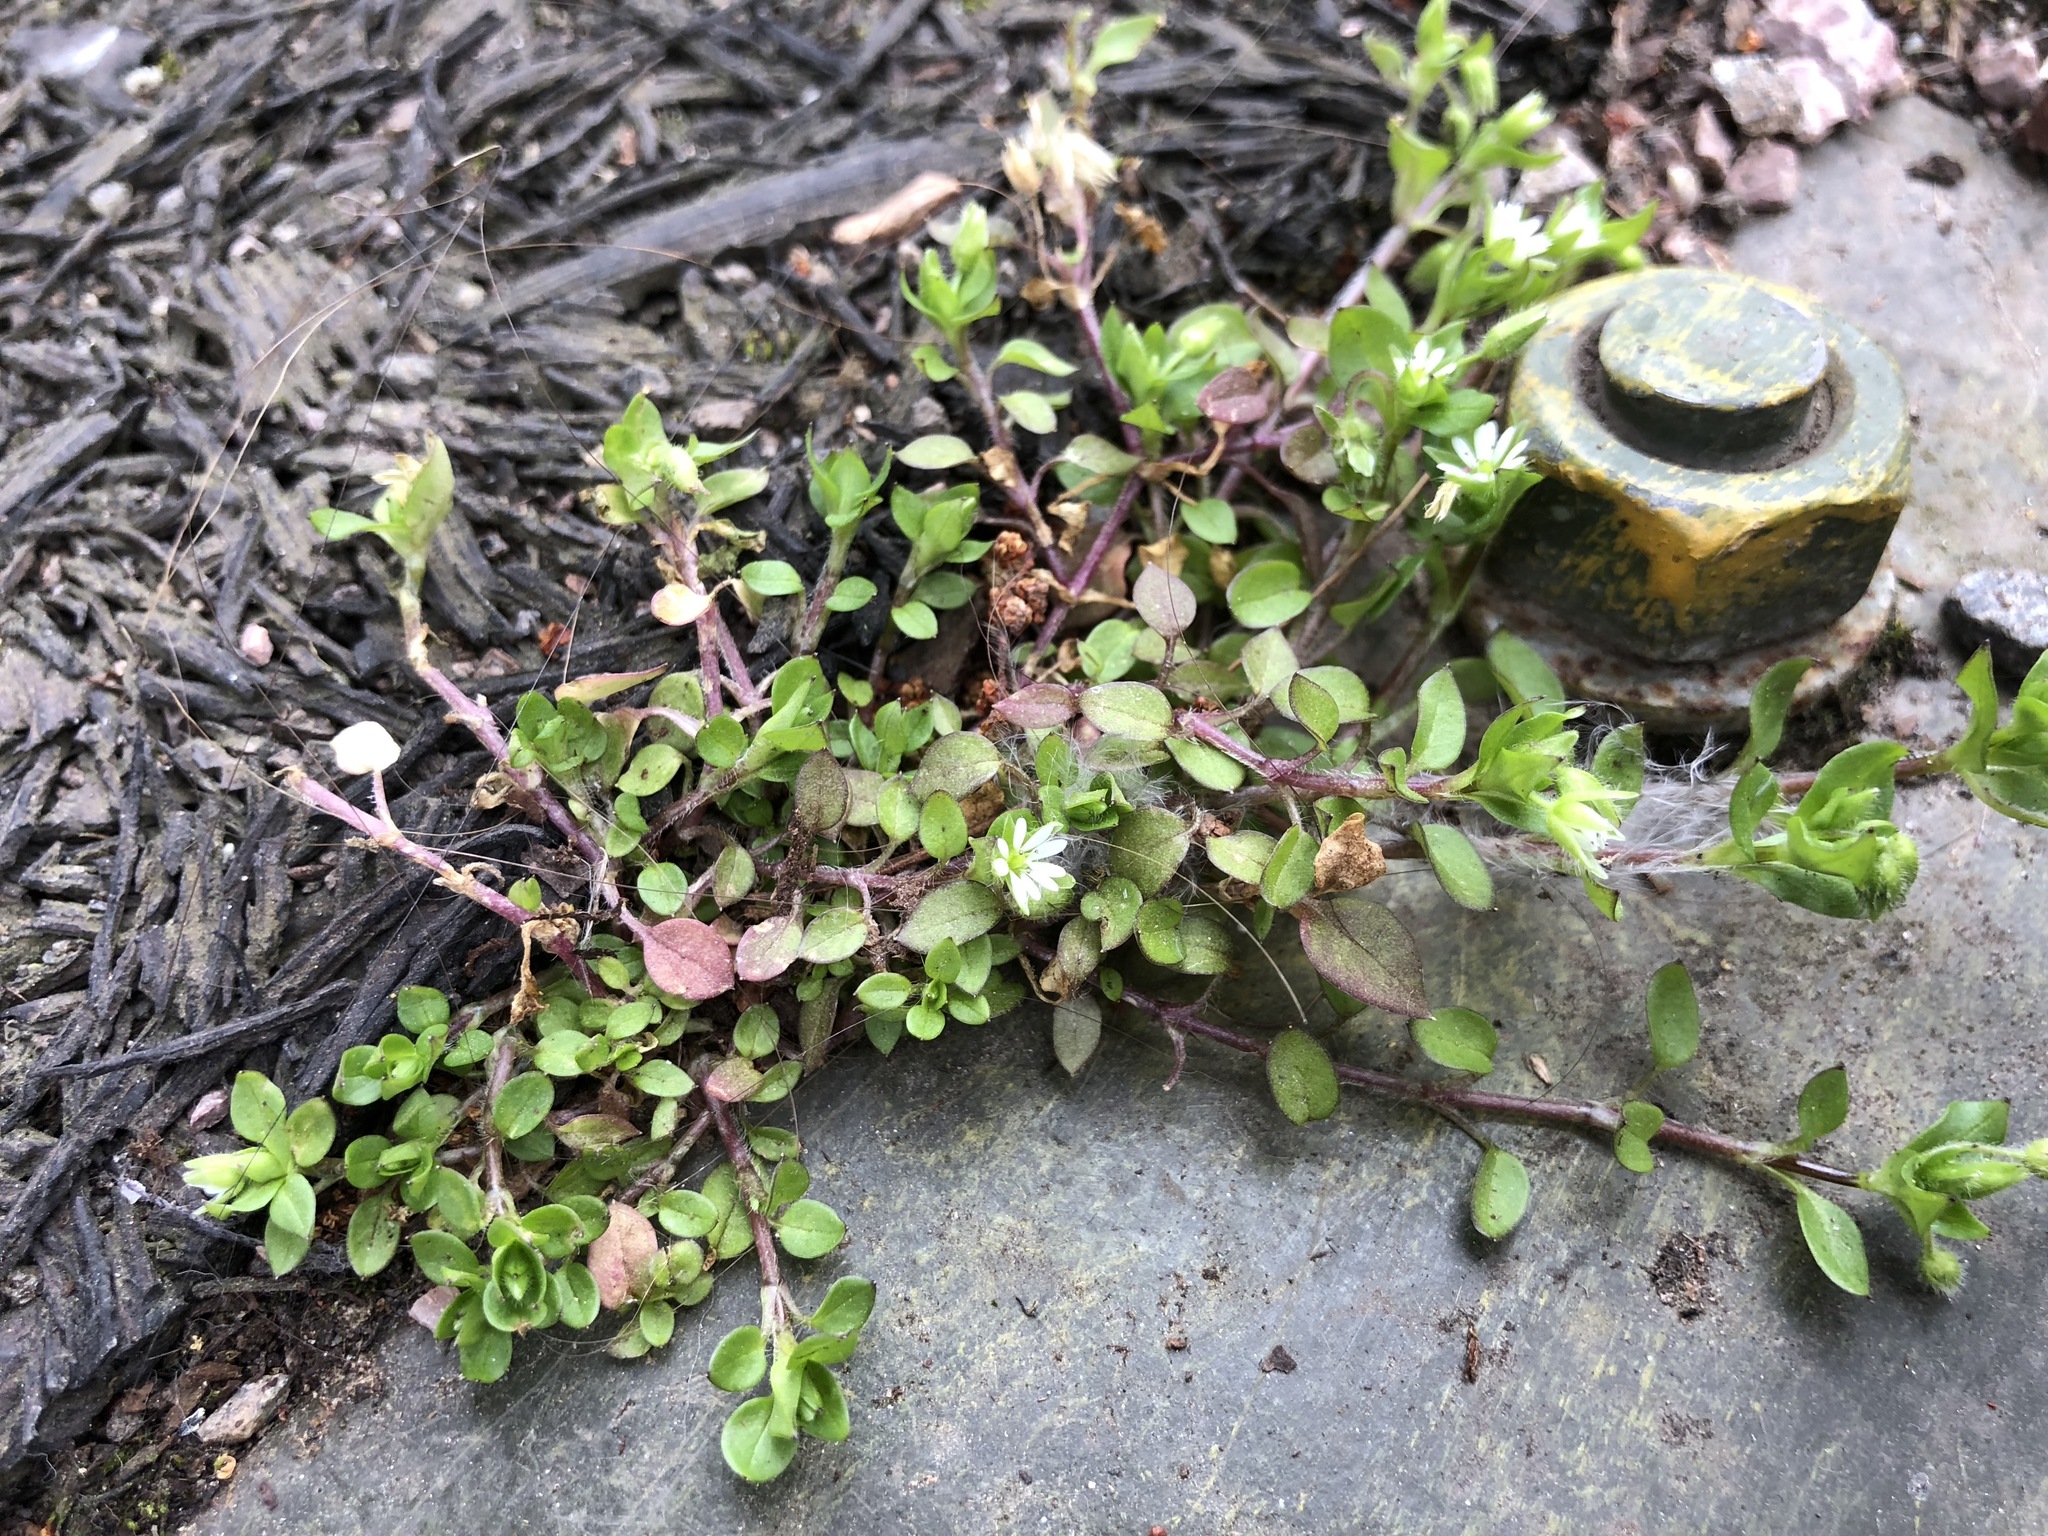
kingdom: Plantae
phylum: Tracheophyta
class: Magnoliopsida
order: Caryophyllales
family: Caryophyllaceae
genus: Stellaria
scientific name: Stellaria media
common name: Common chickweed
